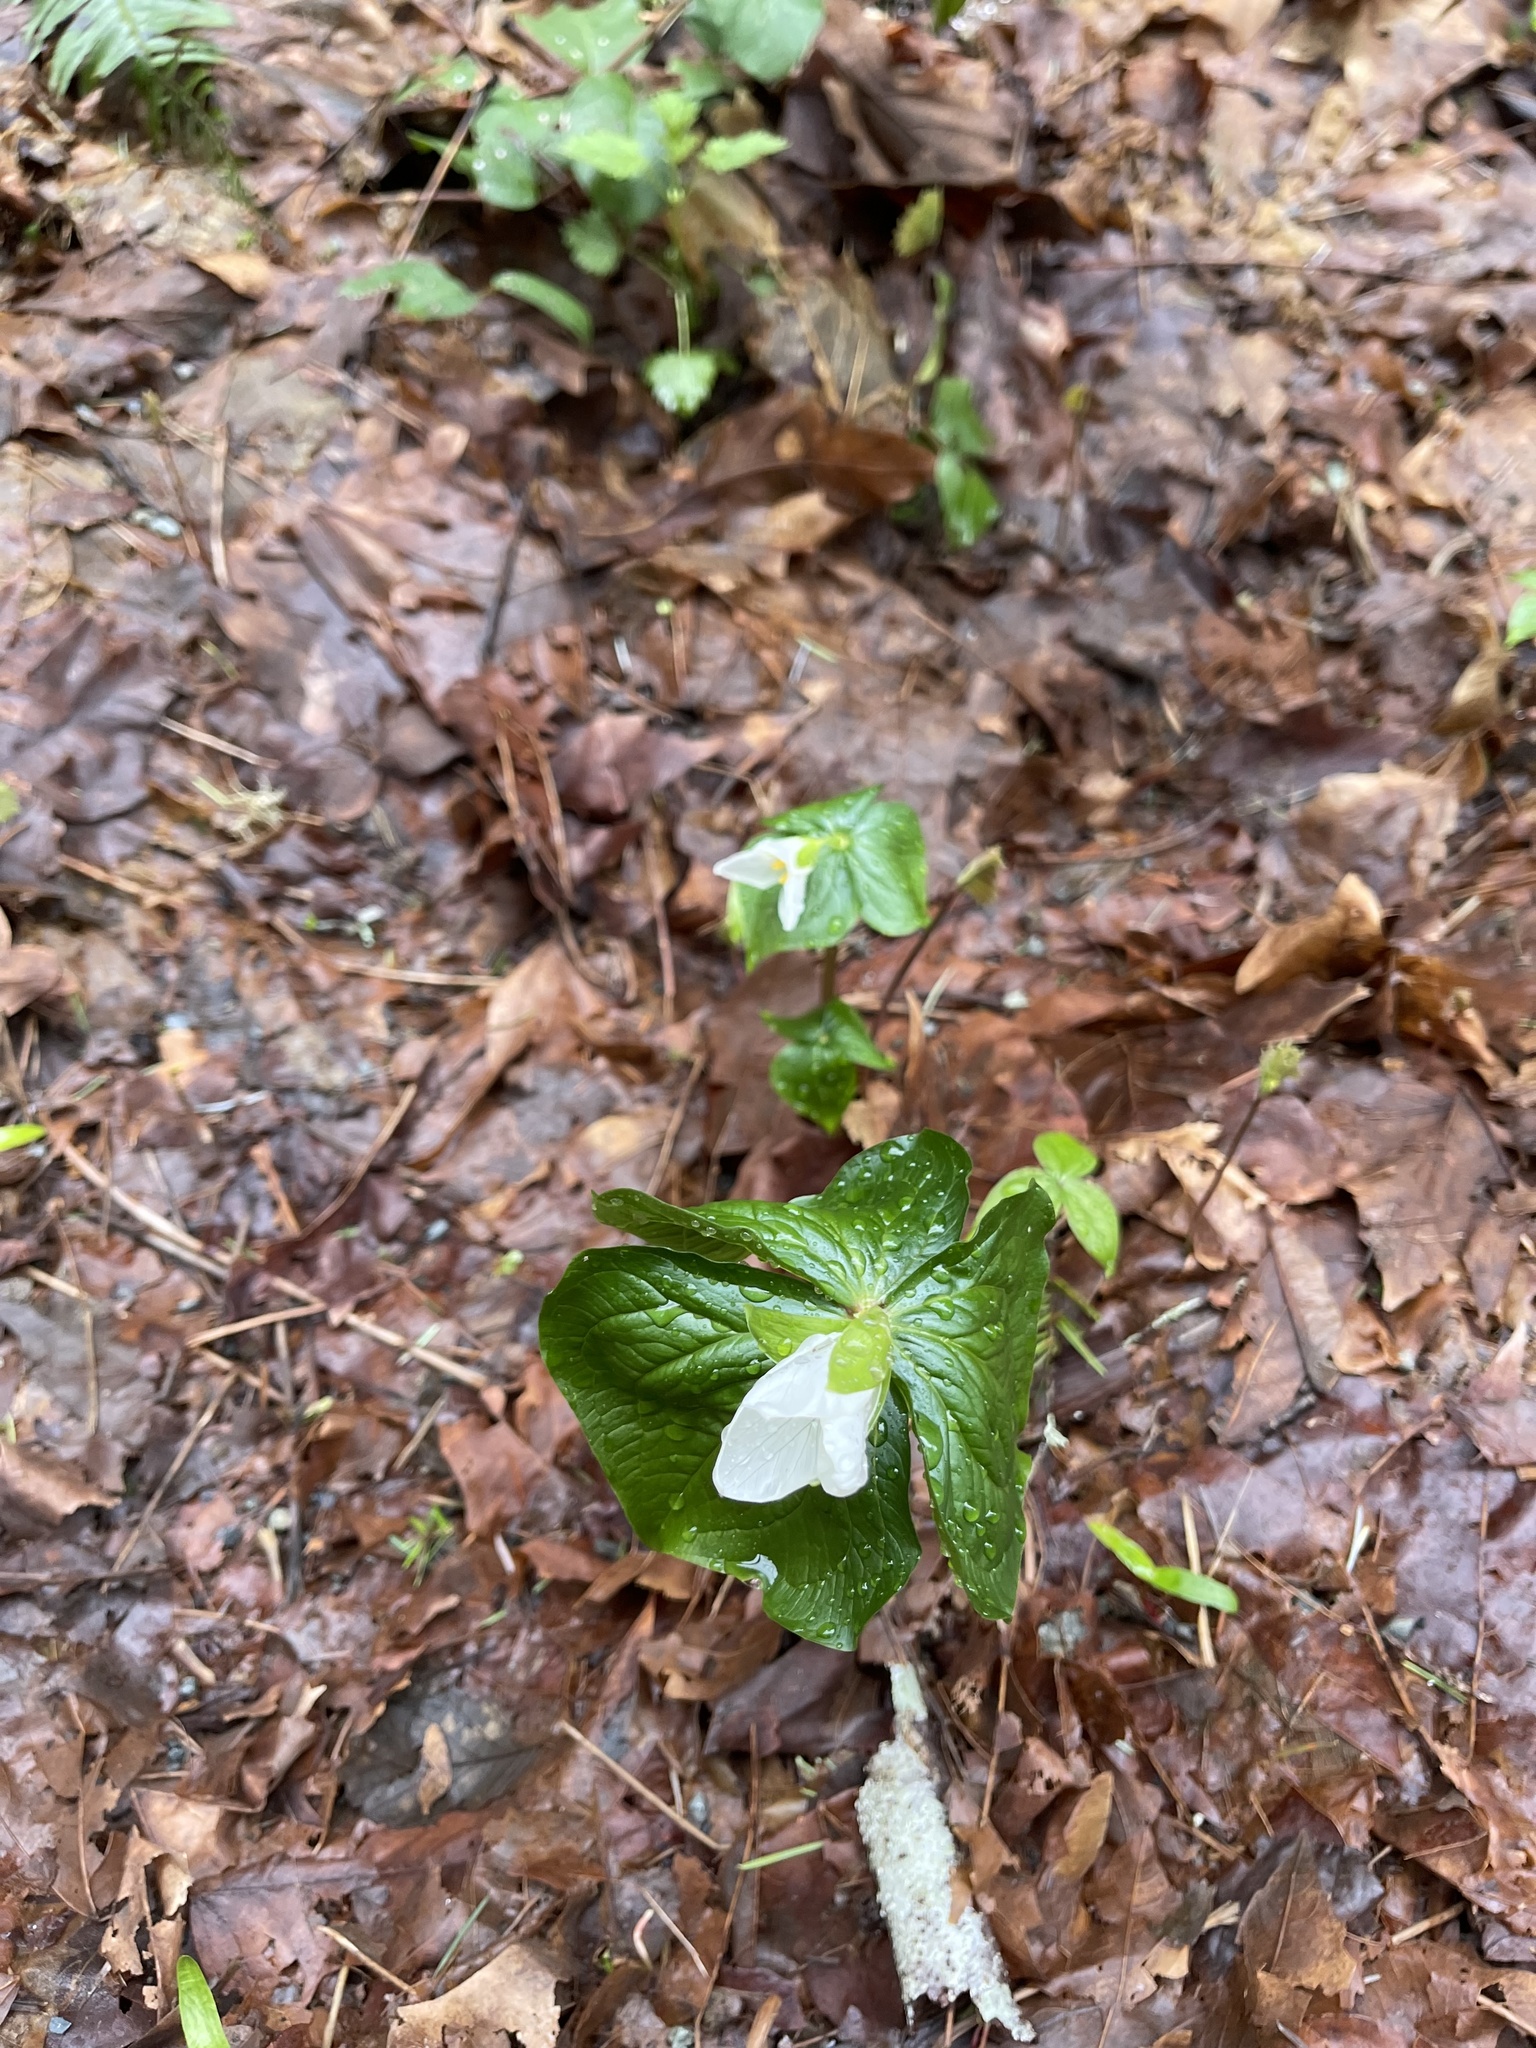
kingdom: Plantae
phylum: Tracheophyta
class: Liliopsida
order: Liliales
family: Melanthiaceae
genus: Trillium
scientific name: Trillium ovatum
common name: Pacific trillium
